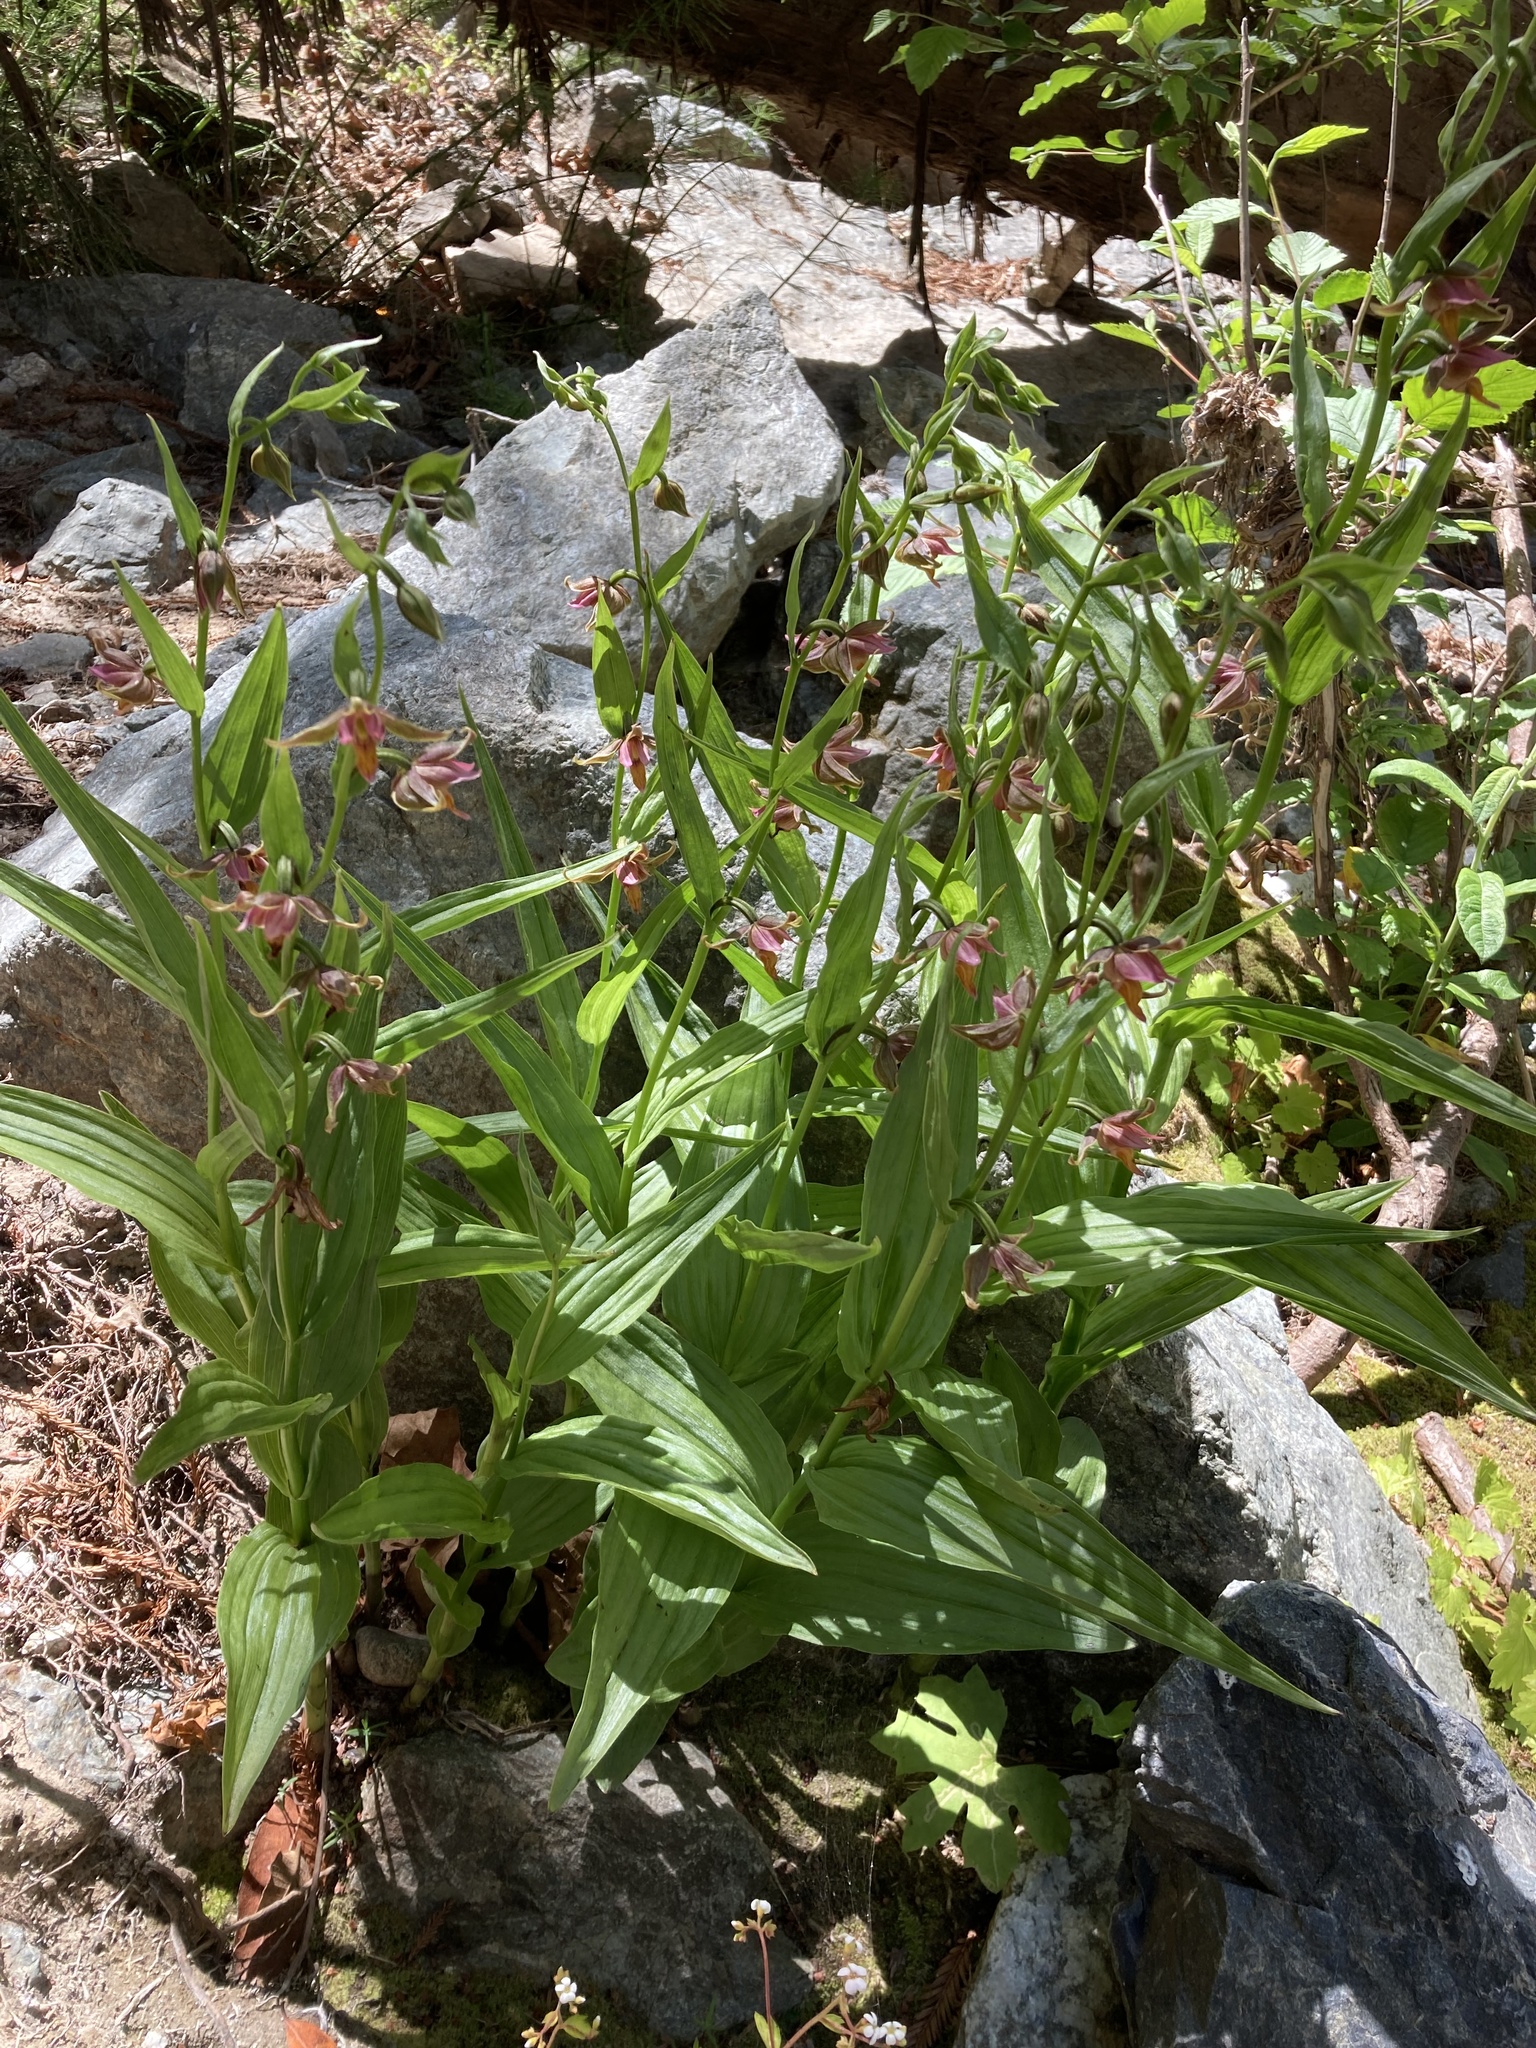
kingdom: Plantae
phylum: Tracheophyta
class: Liliopsida
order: Asparagales
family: Orchidaceae
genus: Epipactis
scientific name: Epipactis gigantea
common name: Chatterbox
